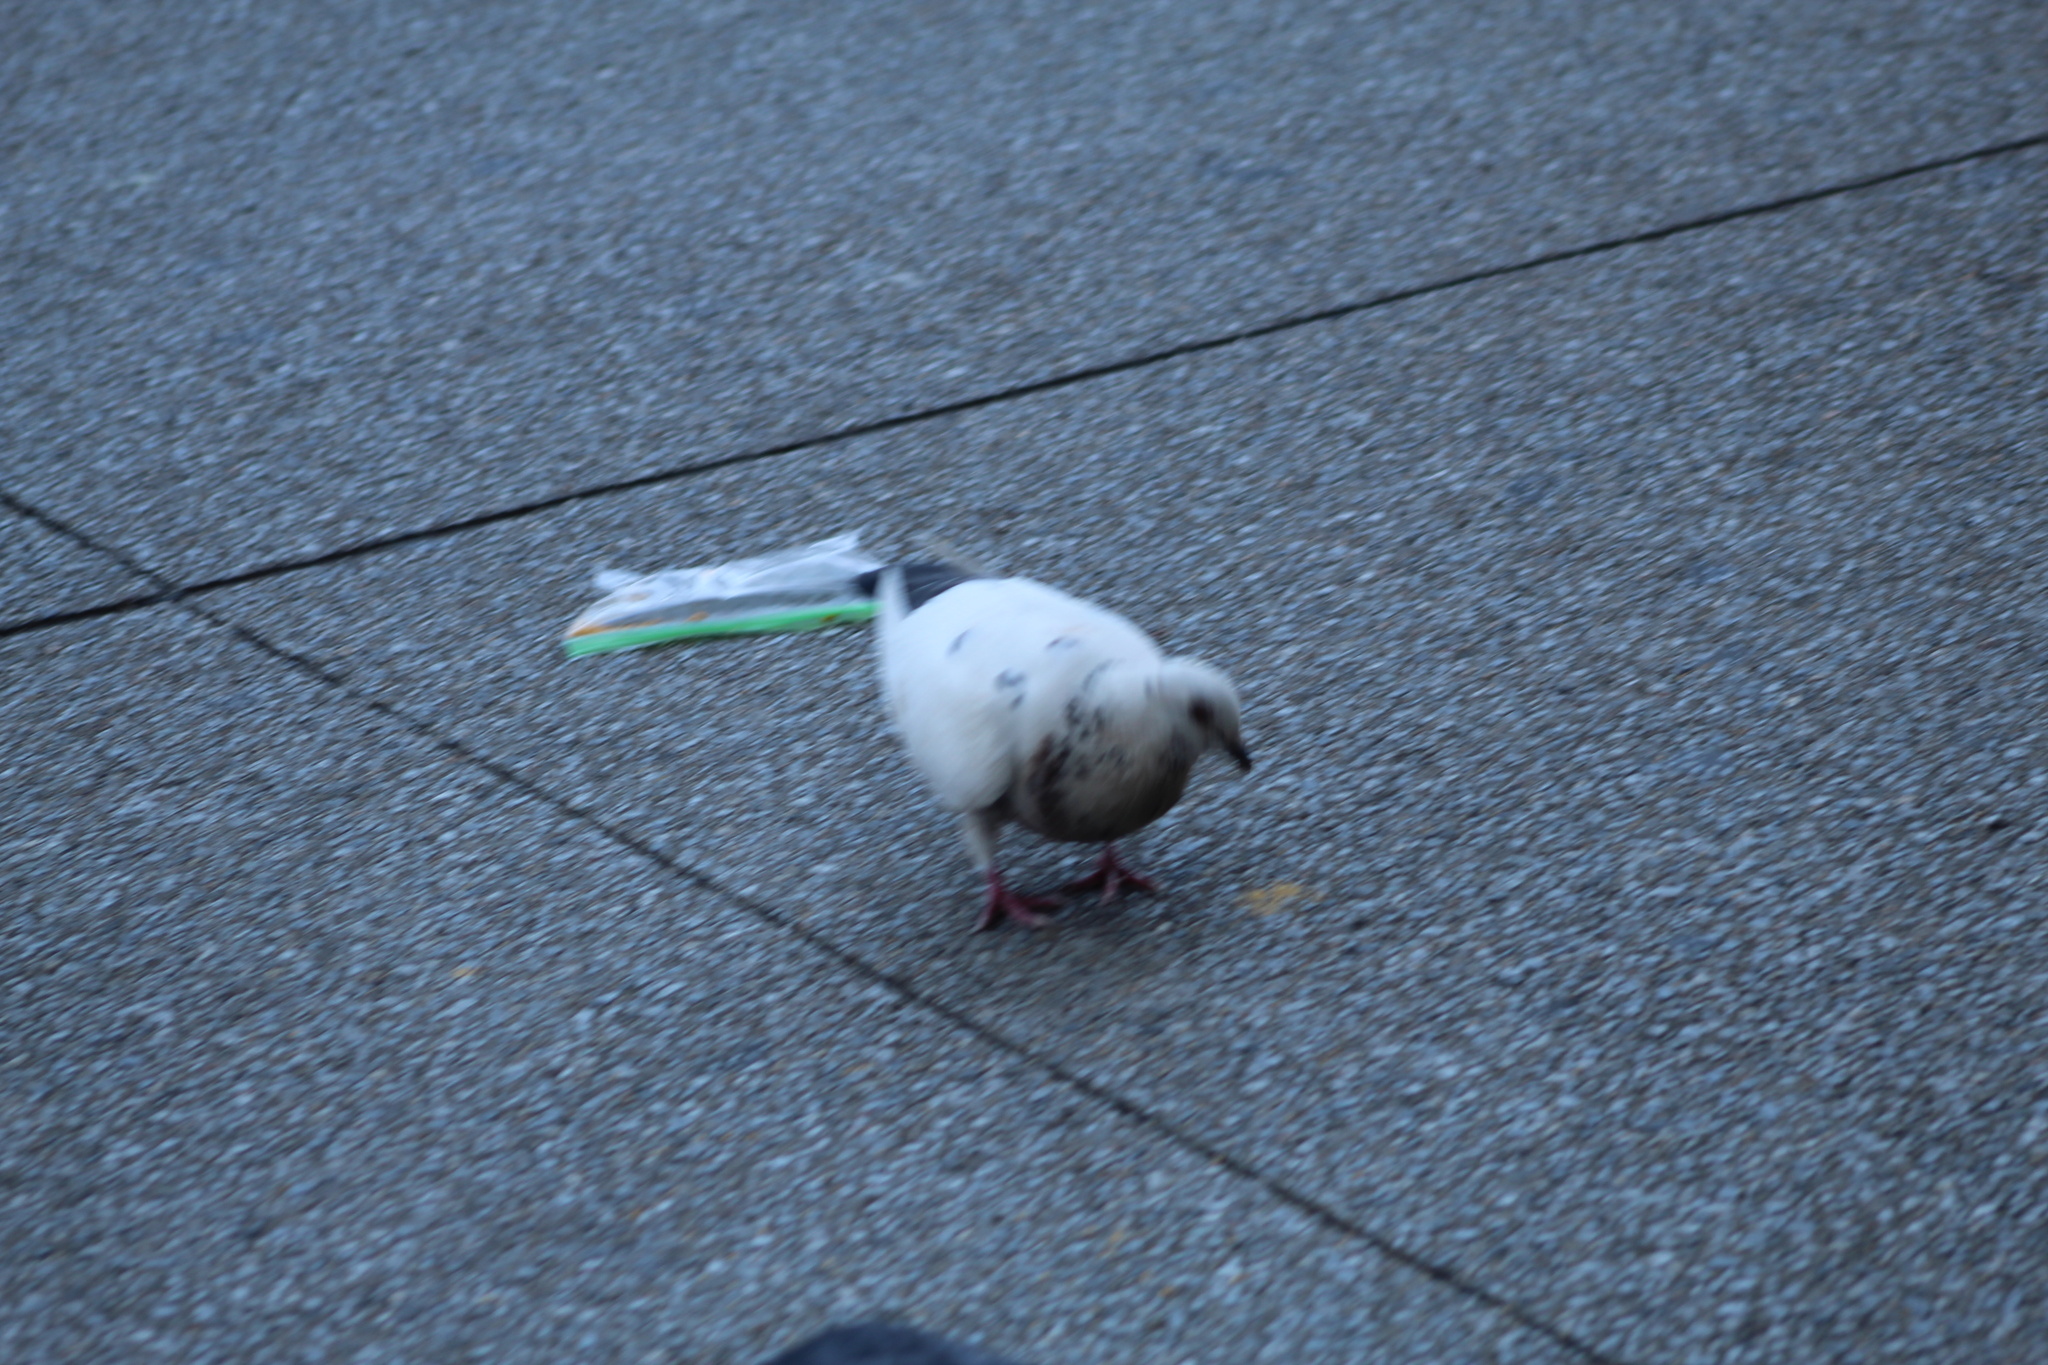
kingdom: Animalia
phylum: Chordata
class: Aves
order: Columbiformes
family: Columbidae
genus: Columba
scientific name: Columba livia
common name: Rock pigeon
